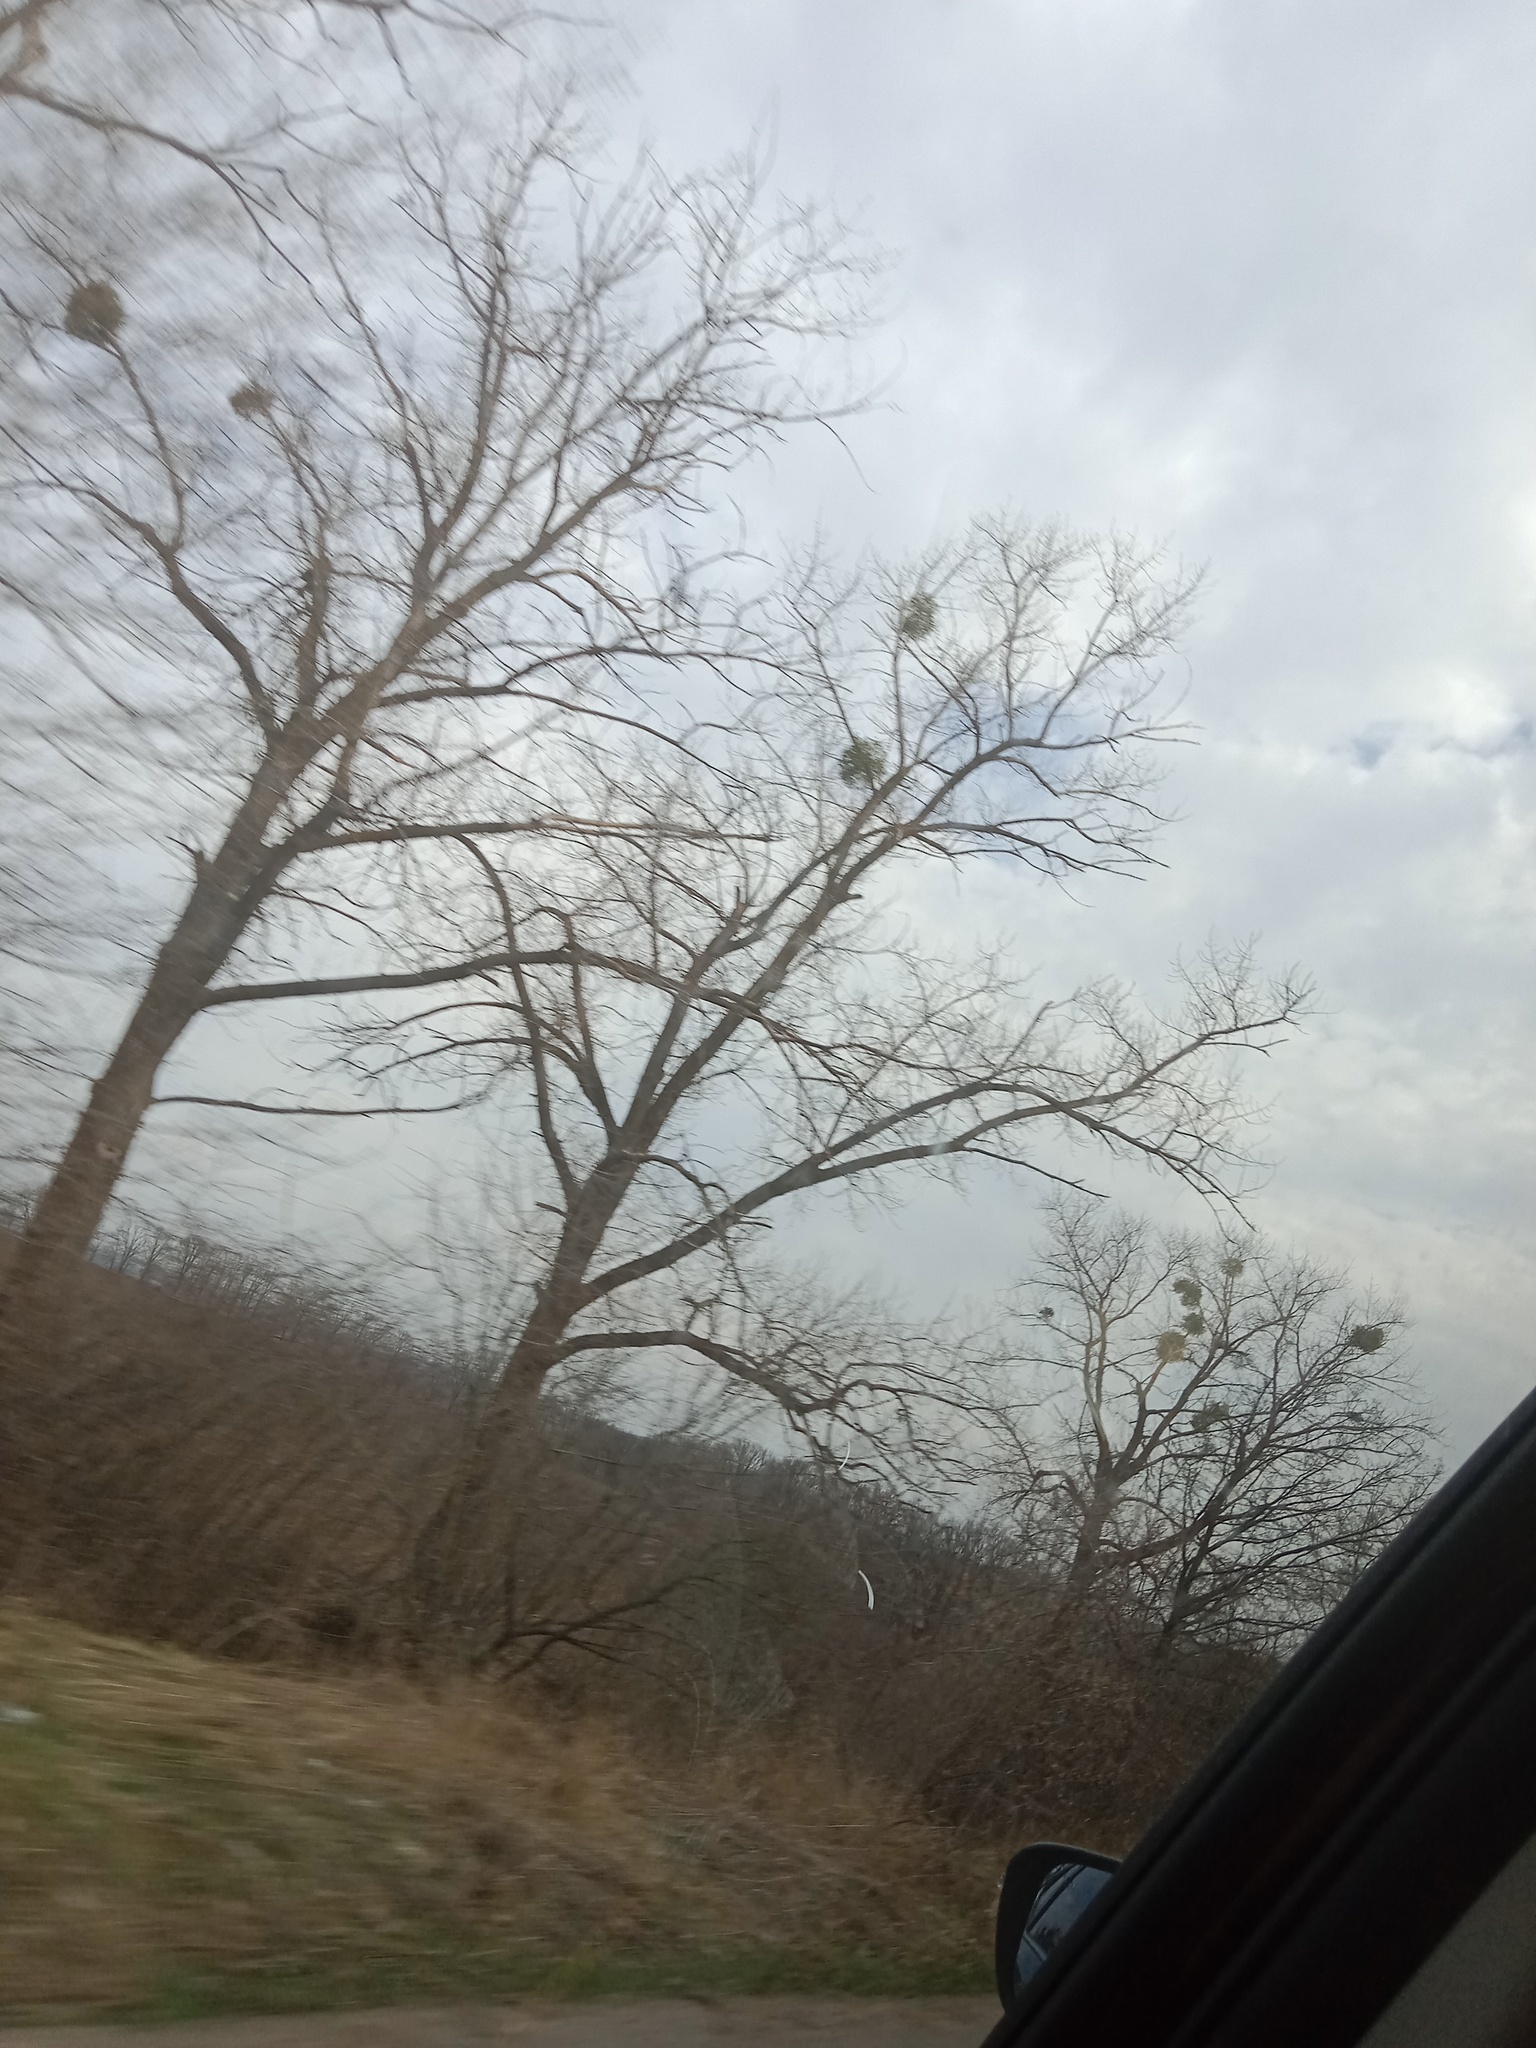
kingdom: Plantae
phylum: Tracheophyta
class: Magnoliopsida
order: Santalales
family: Viscaceae
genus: Viscum
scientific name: Viscum album
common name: Mistletoe
